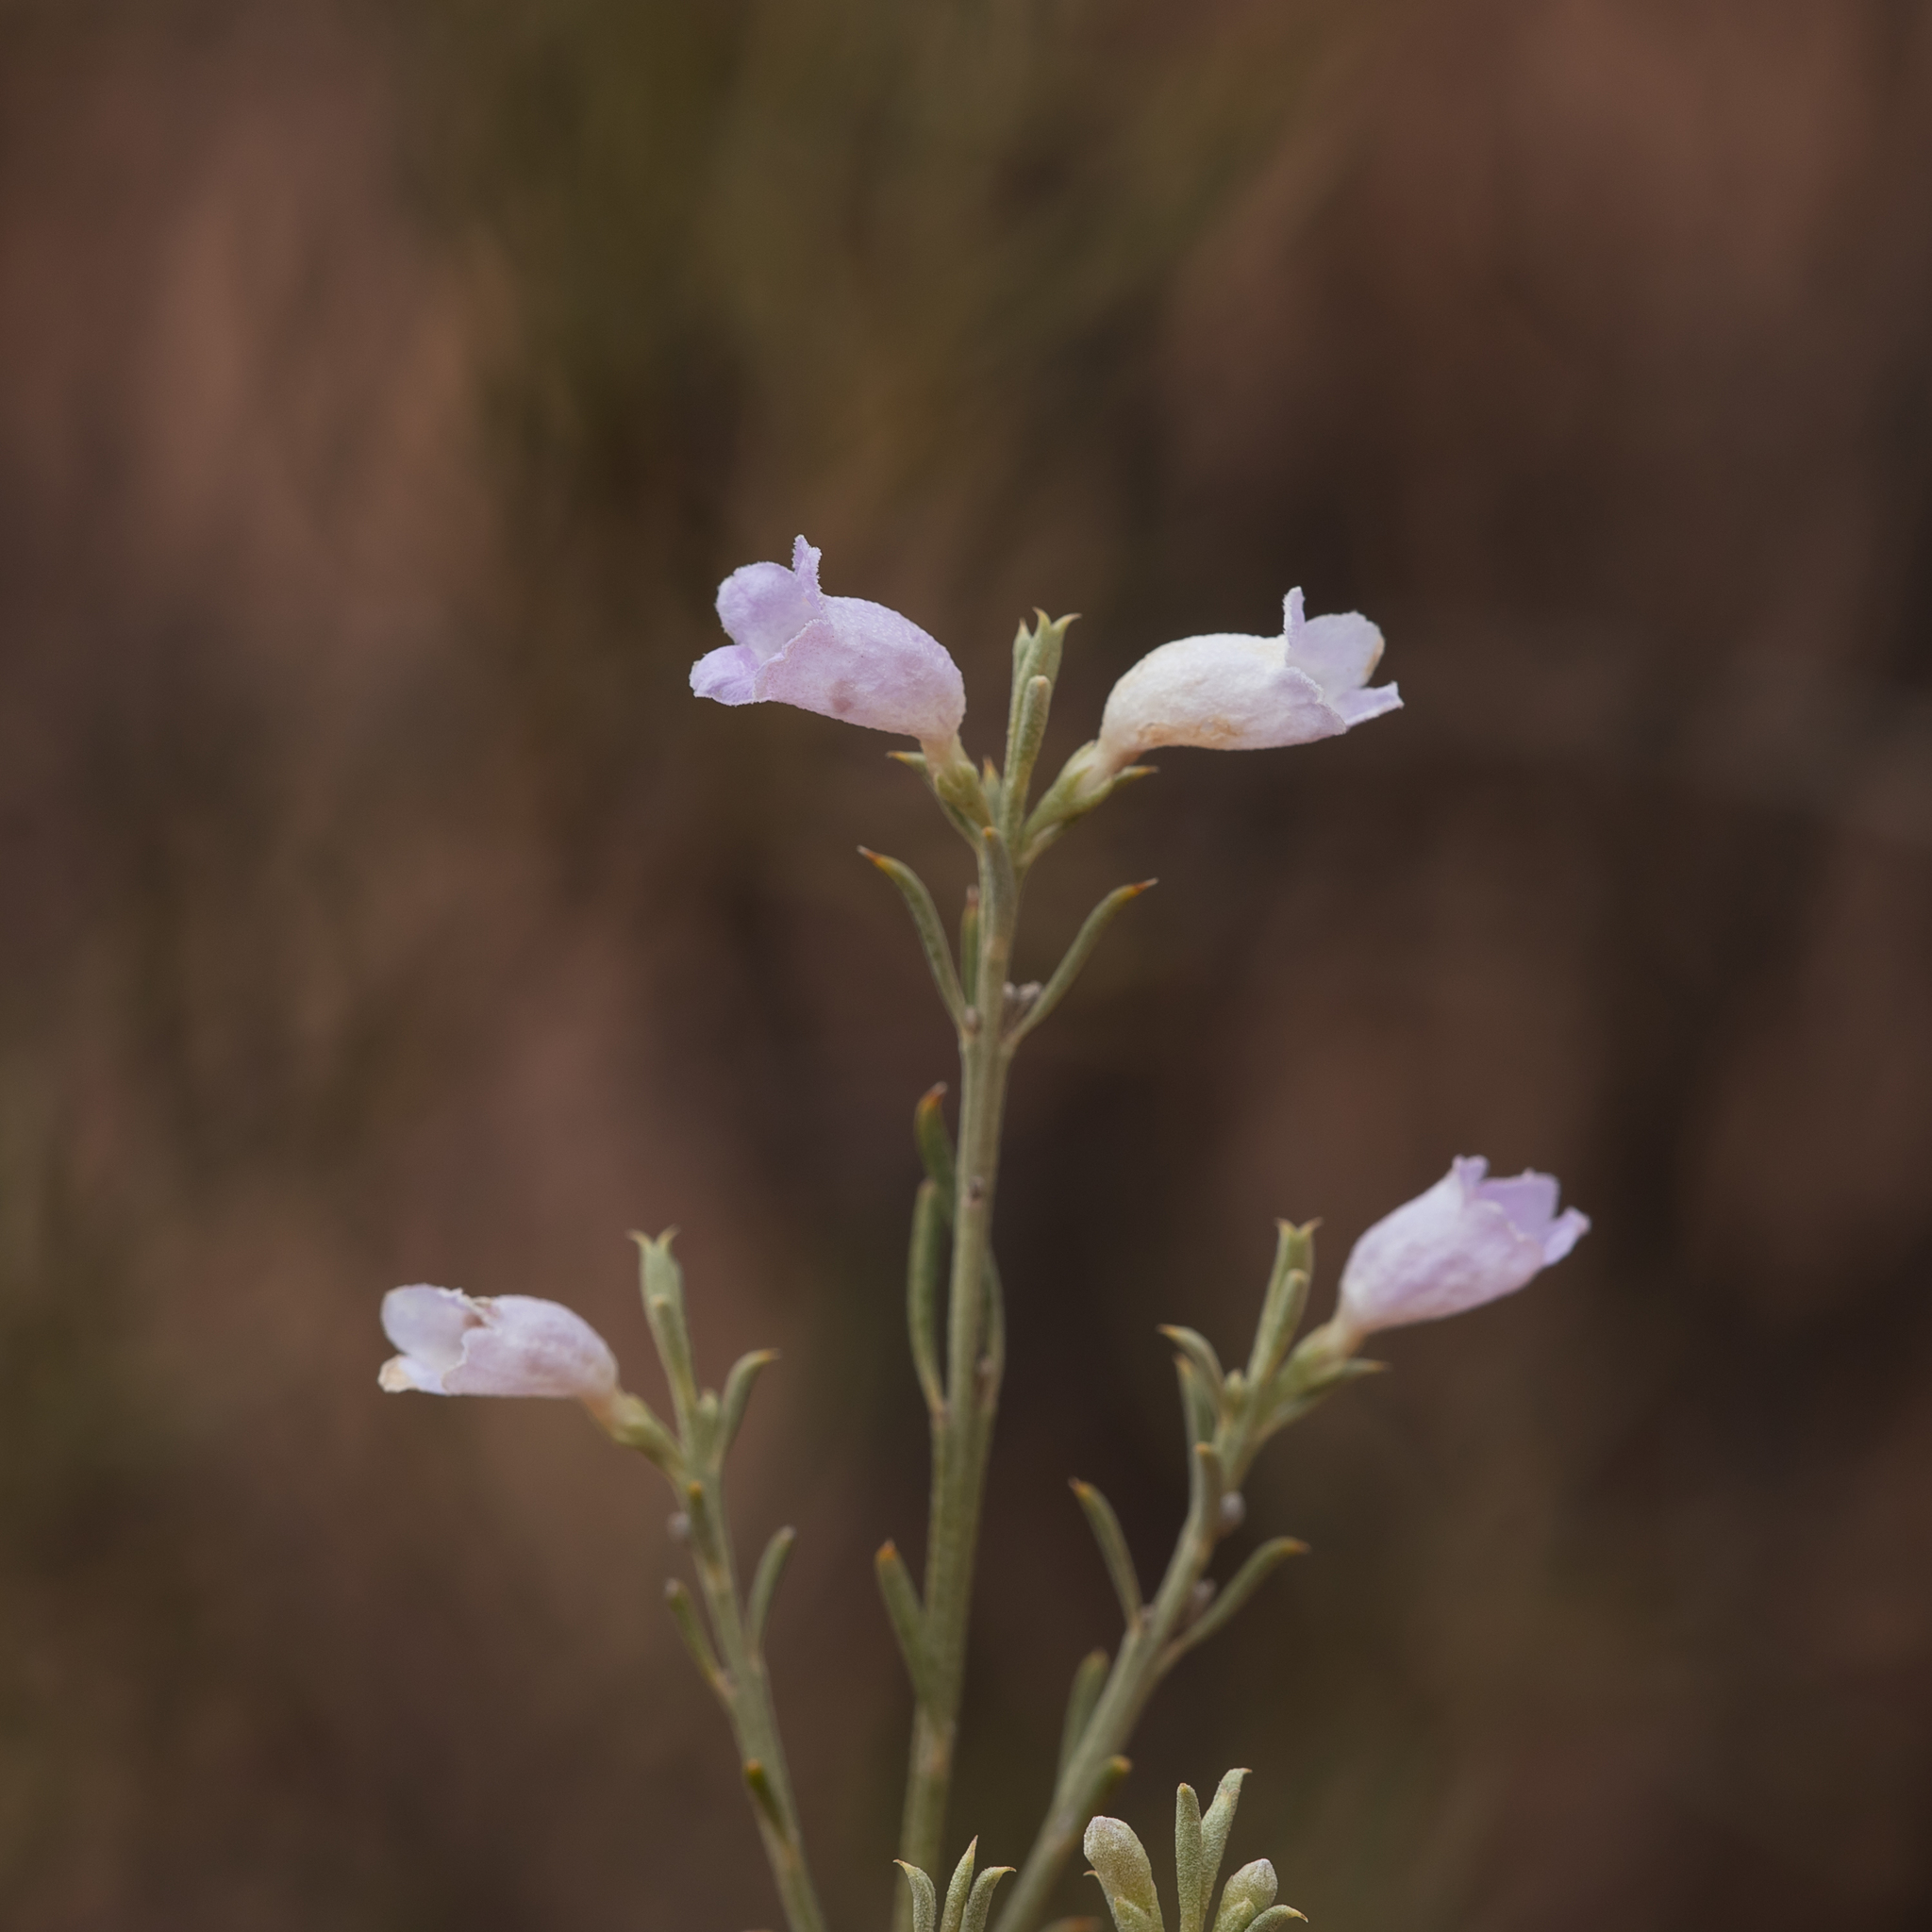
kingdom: Plantae
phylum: Tracheophyta
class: Magnoliopsida
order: Lamiales
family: Scrophulariaceae
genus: Eremophila
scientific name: Eremophila scoparia
